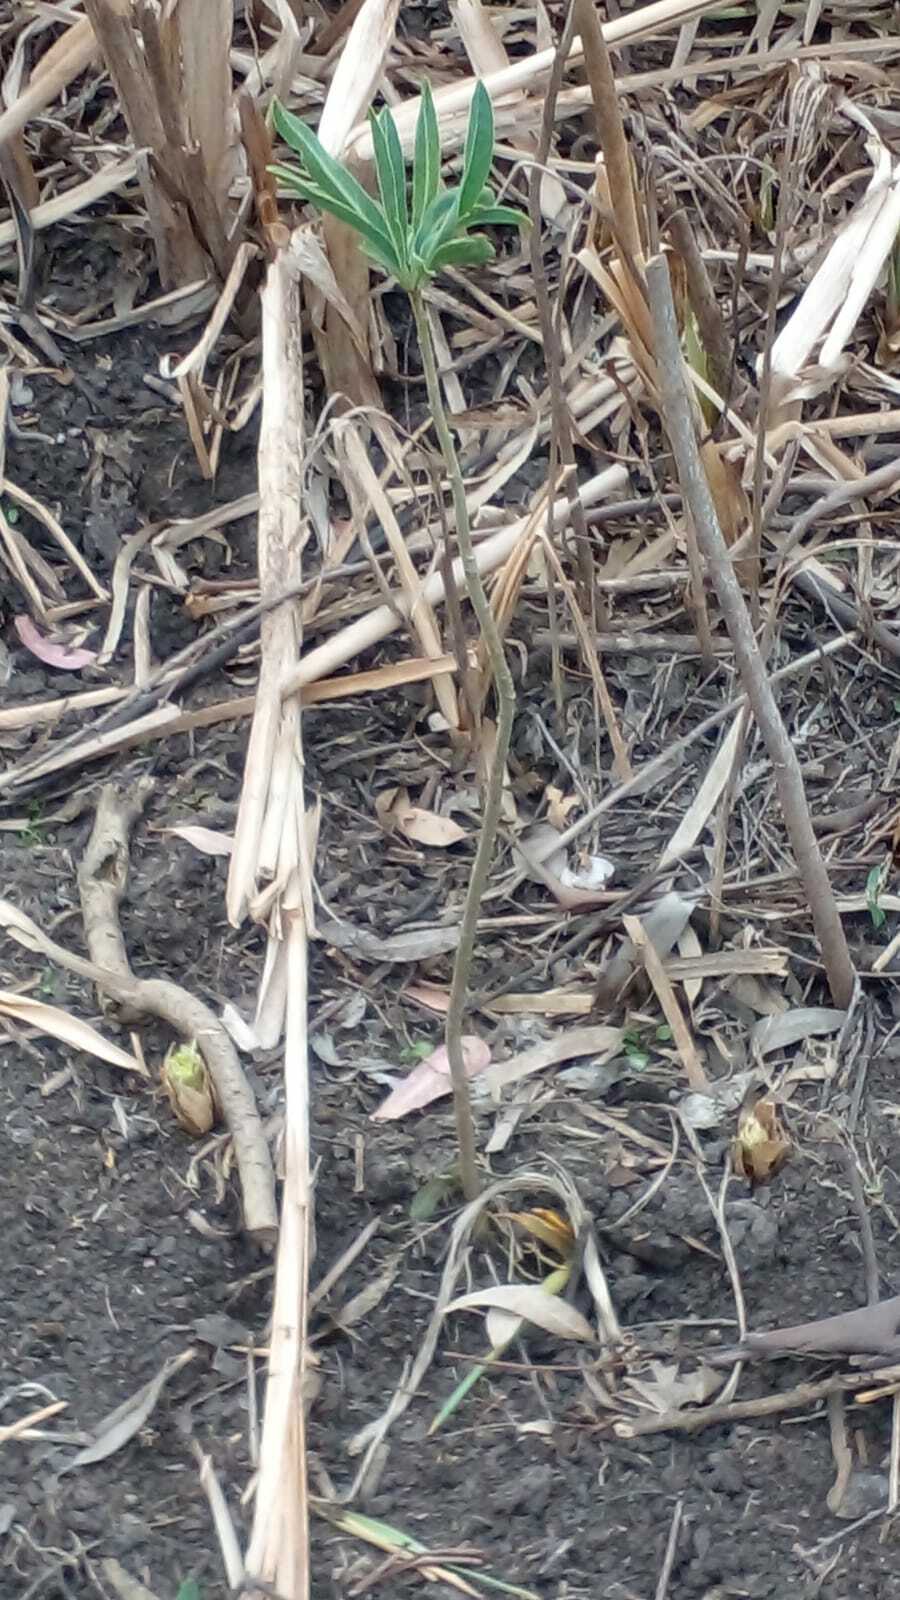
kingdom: Plantae
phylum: Tracheophyta
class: Magnoliopsida
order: Solanales
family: Solanaceae
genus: Solanum
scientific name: Solanum glaucophyllum
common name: Waxyleaf nightshade
